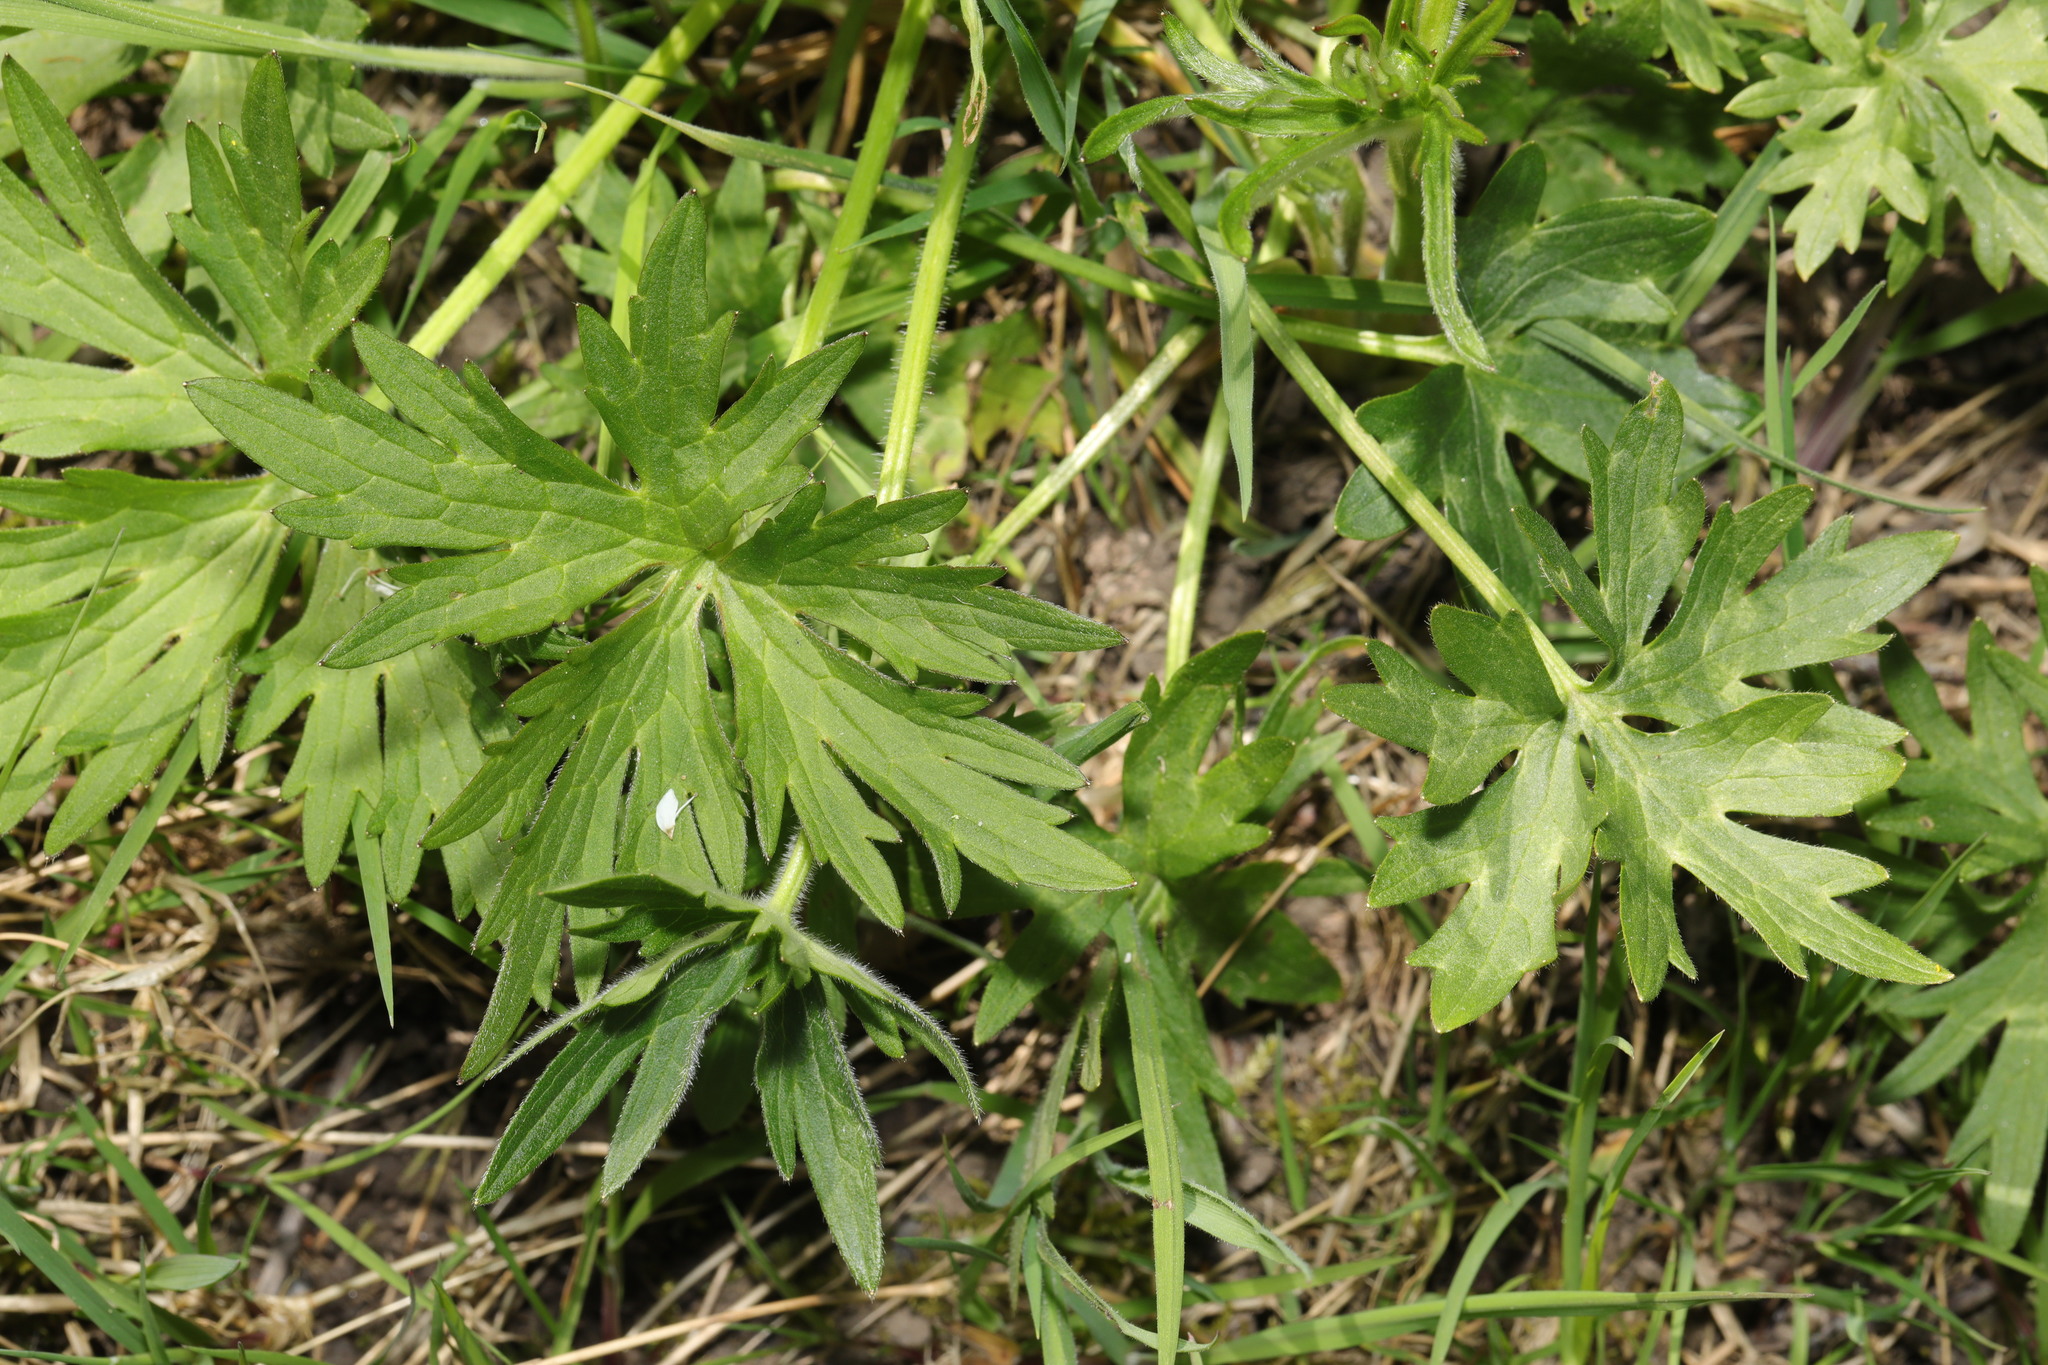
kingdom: Plantae
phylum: Tracheophyta
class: Magnoliopsida
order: Ranunculales
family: Ranunculaceae
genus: Ranunculus
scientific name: Ranunculus acris
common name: Meadow buttercup
